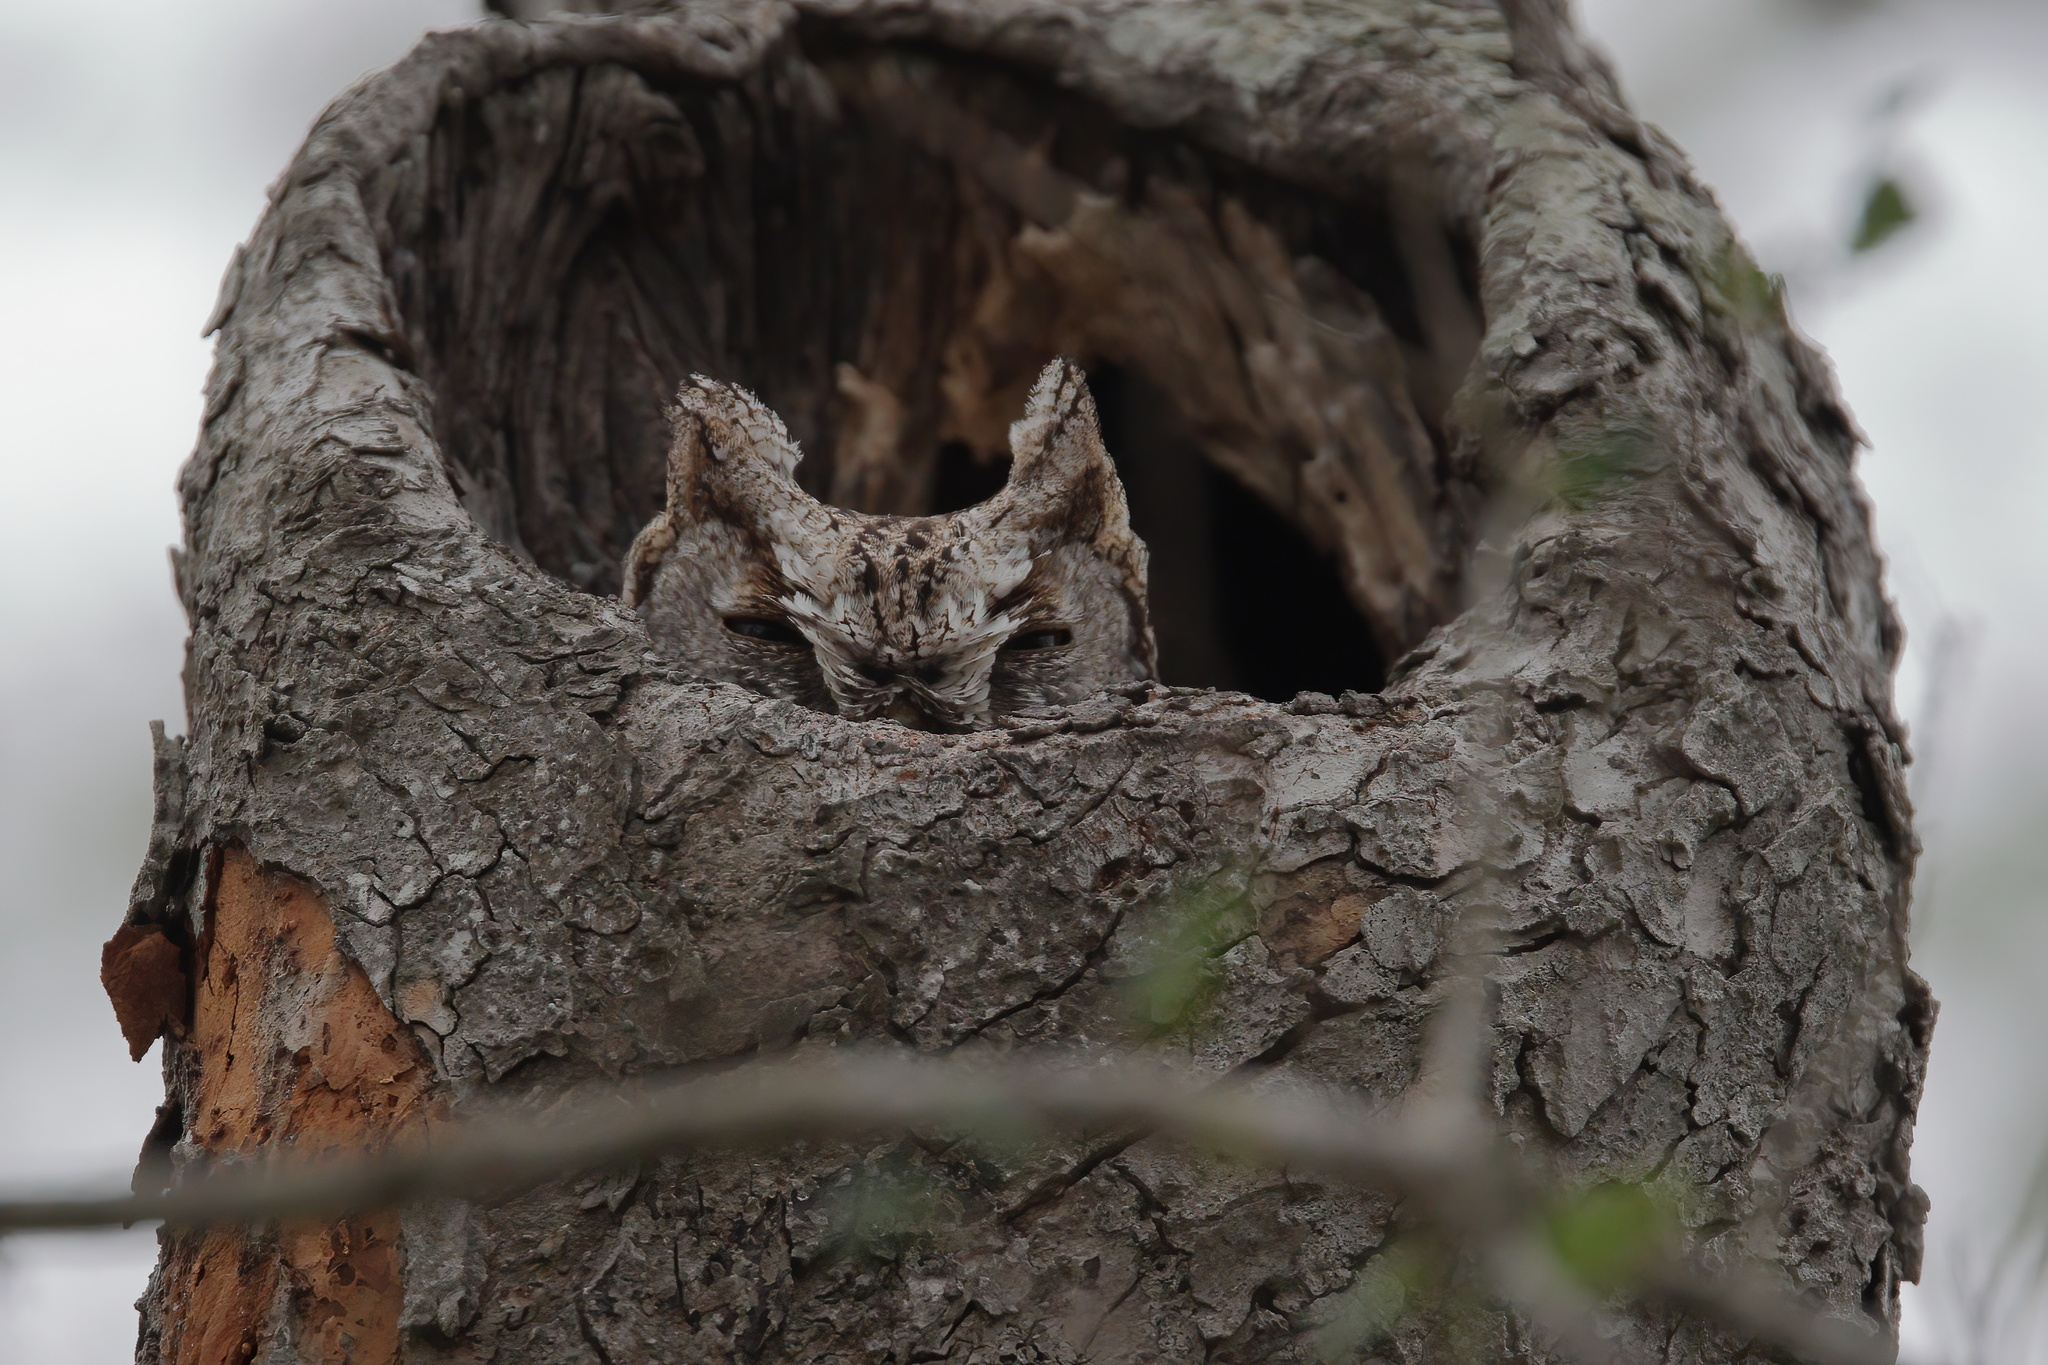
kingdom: Animalia
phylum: Chordata
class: Aves
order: Strigiformes
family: Strigidae
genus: Megascops
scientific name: Megascops asio
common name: Eastern screech-owl
